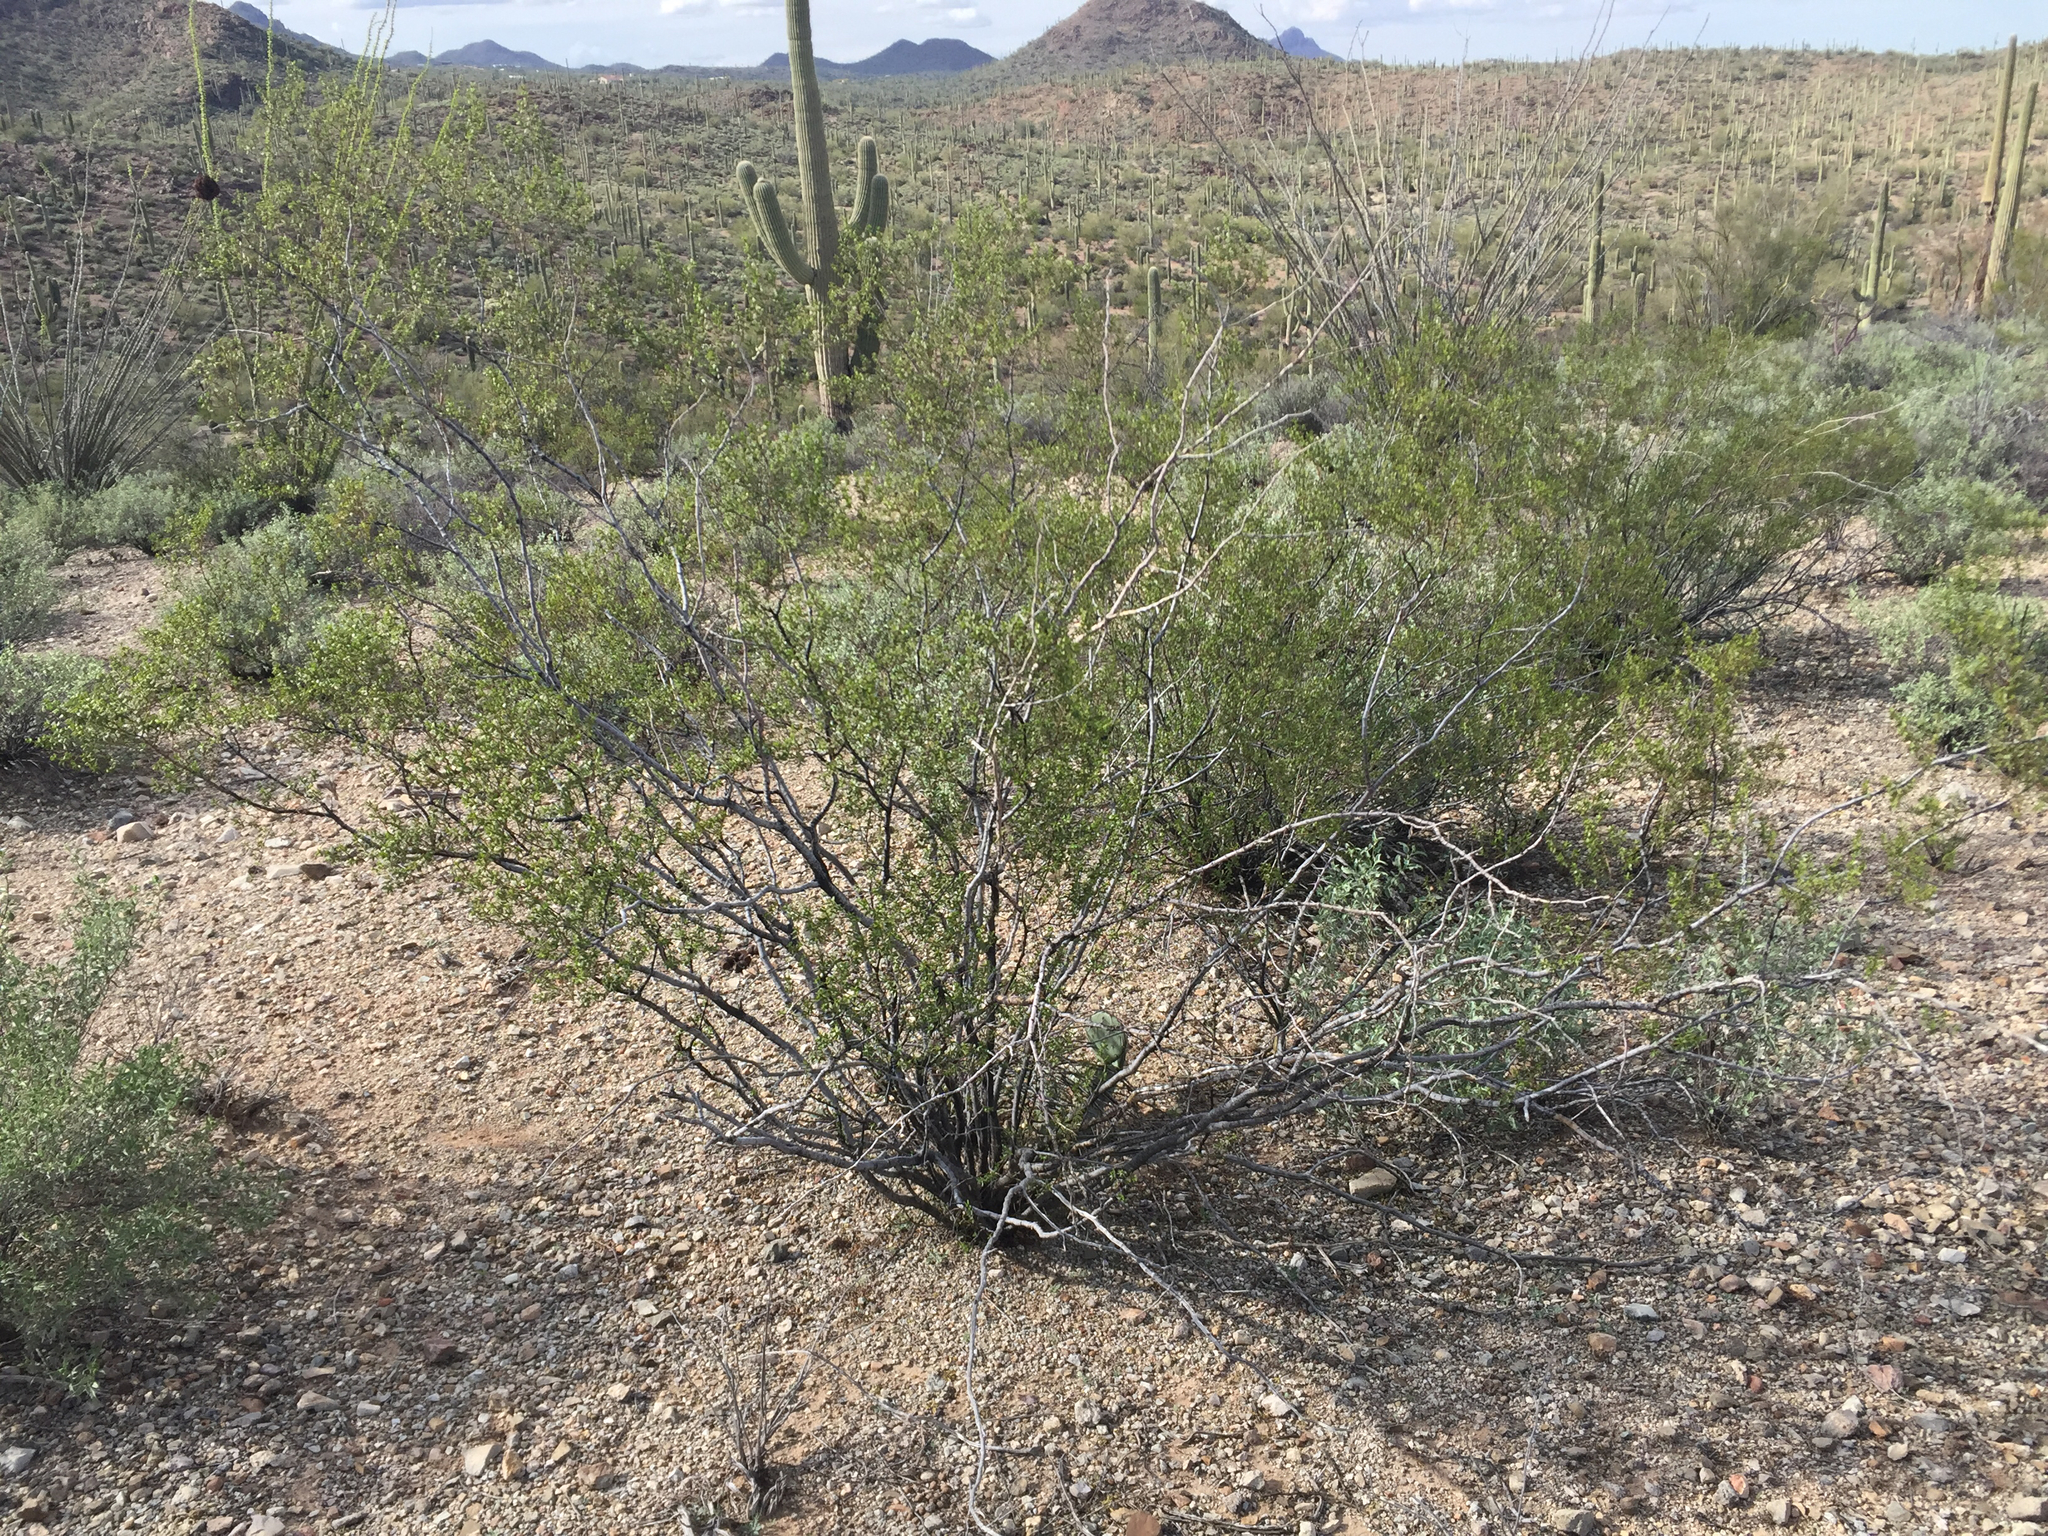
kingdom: Plantae
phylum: Tracheophyta
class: Magnoliopsida
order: Zygophyllales
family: Zygophyllaceae
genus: Larrea
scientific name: Larrea tridentata
